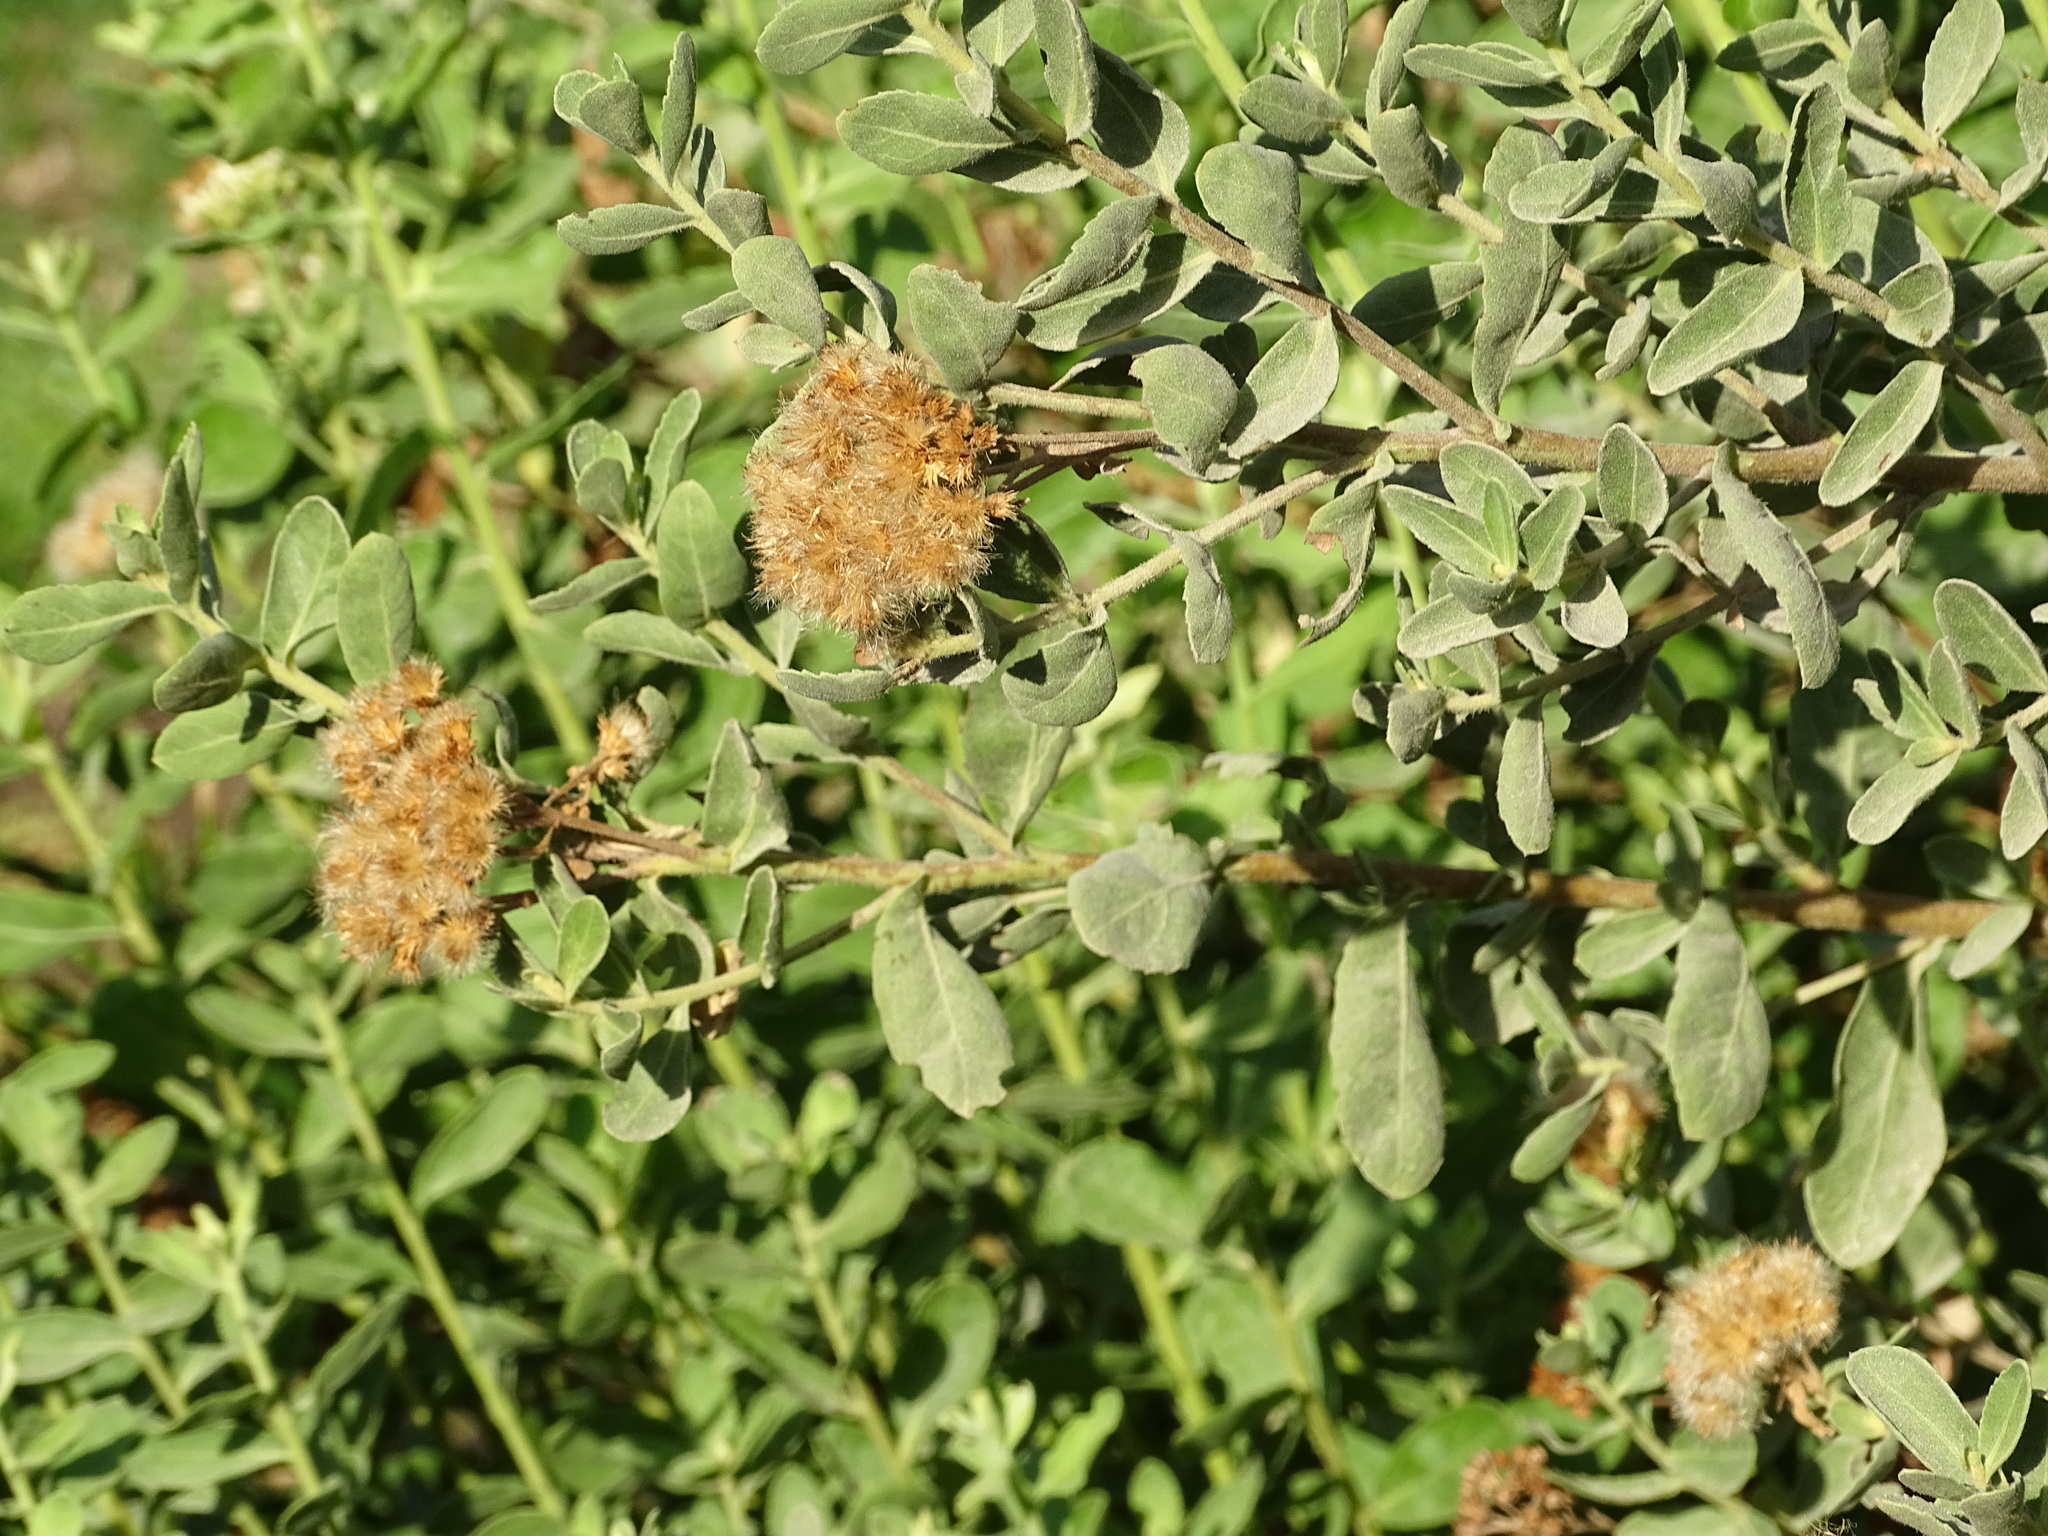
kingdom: Plantae
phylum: Tracheophyta
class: Magnoliopsida
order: Asterales
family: Asteraceae
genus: Pluchea
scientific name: Pluchea dioscoridis
